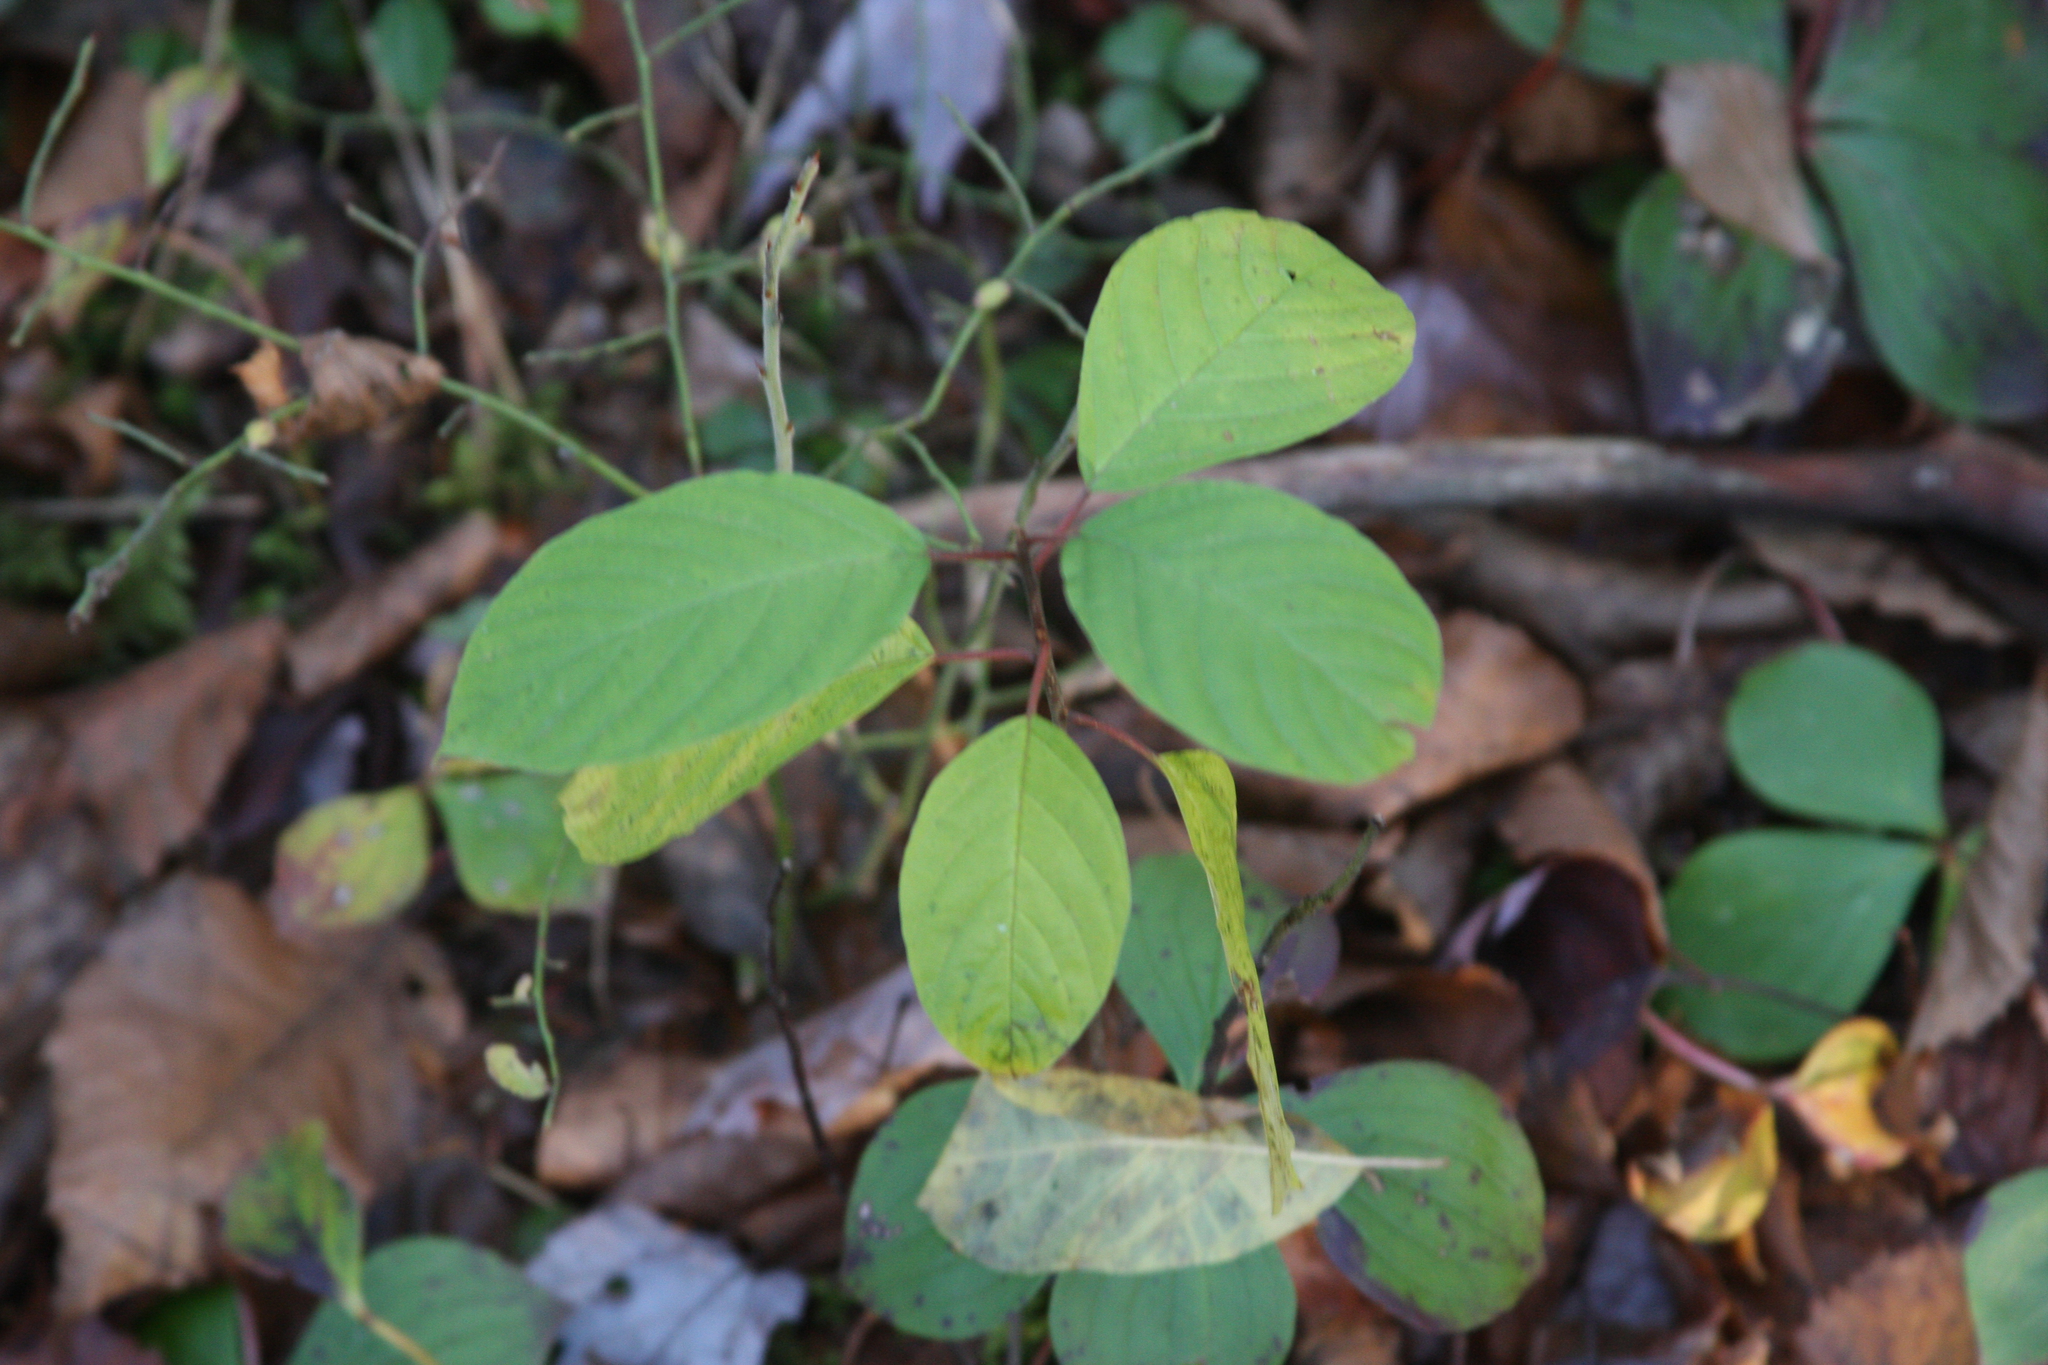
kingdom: Plantae
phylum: Tracheophyta
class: Magnoliopsida
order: Rosales
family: Rhamnaceae
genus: Frangula
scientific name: Frangula alnus
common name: Alder buckthorn
